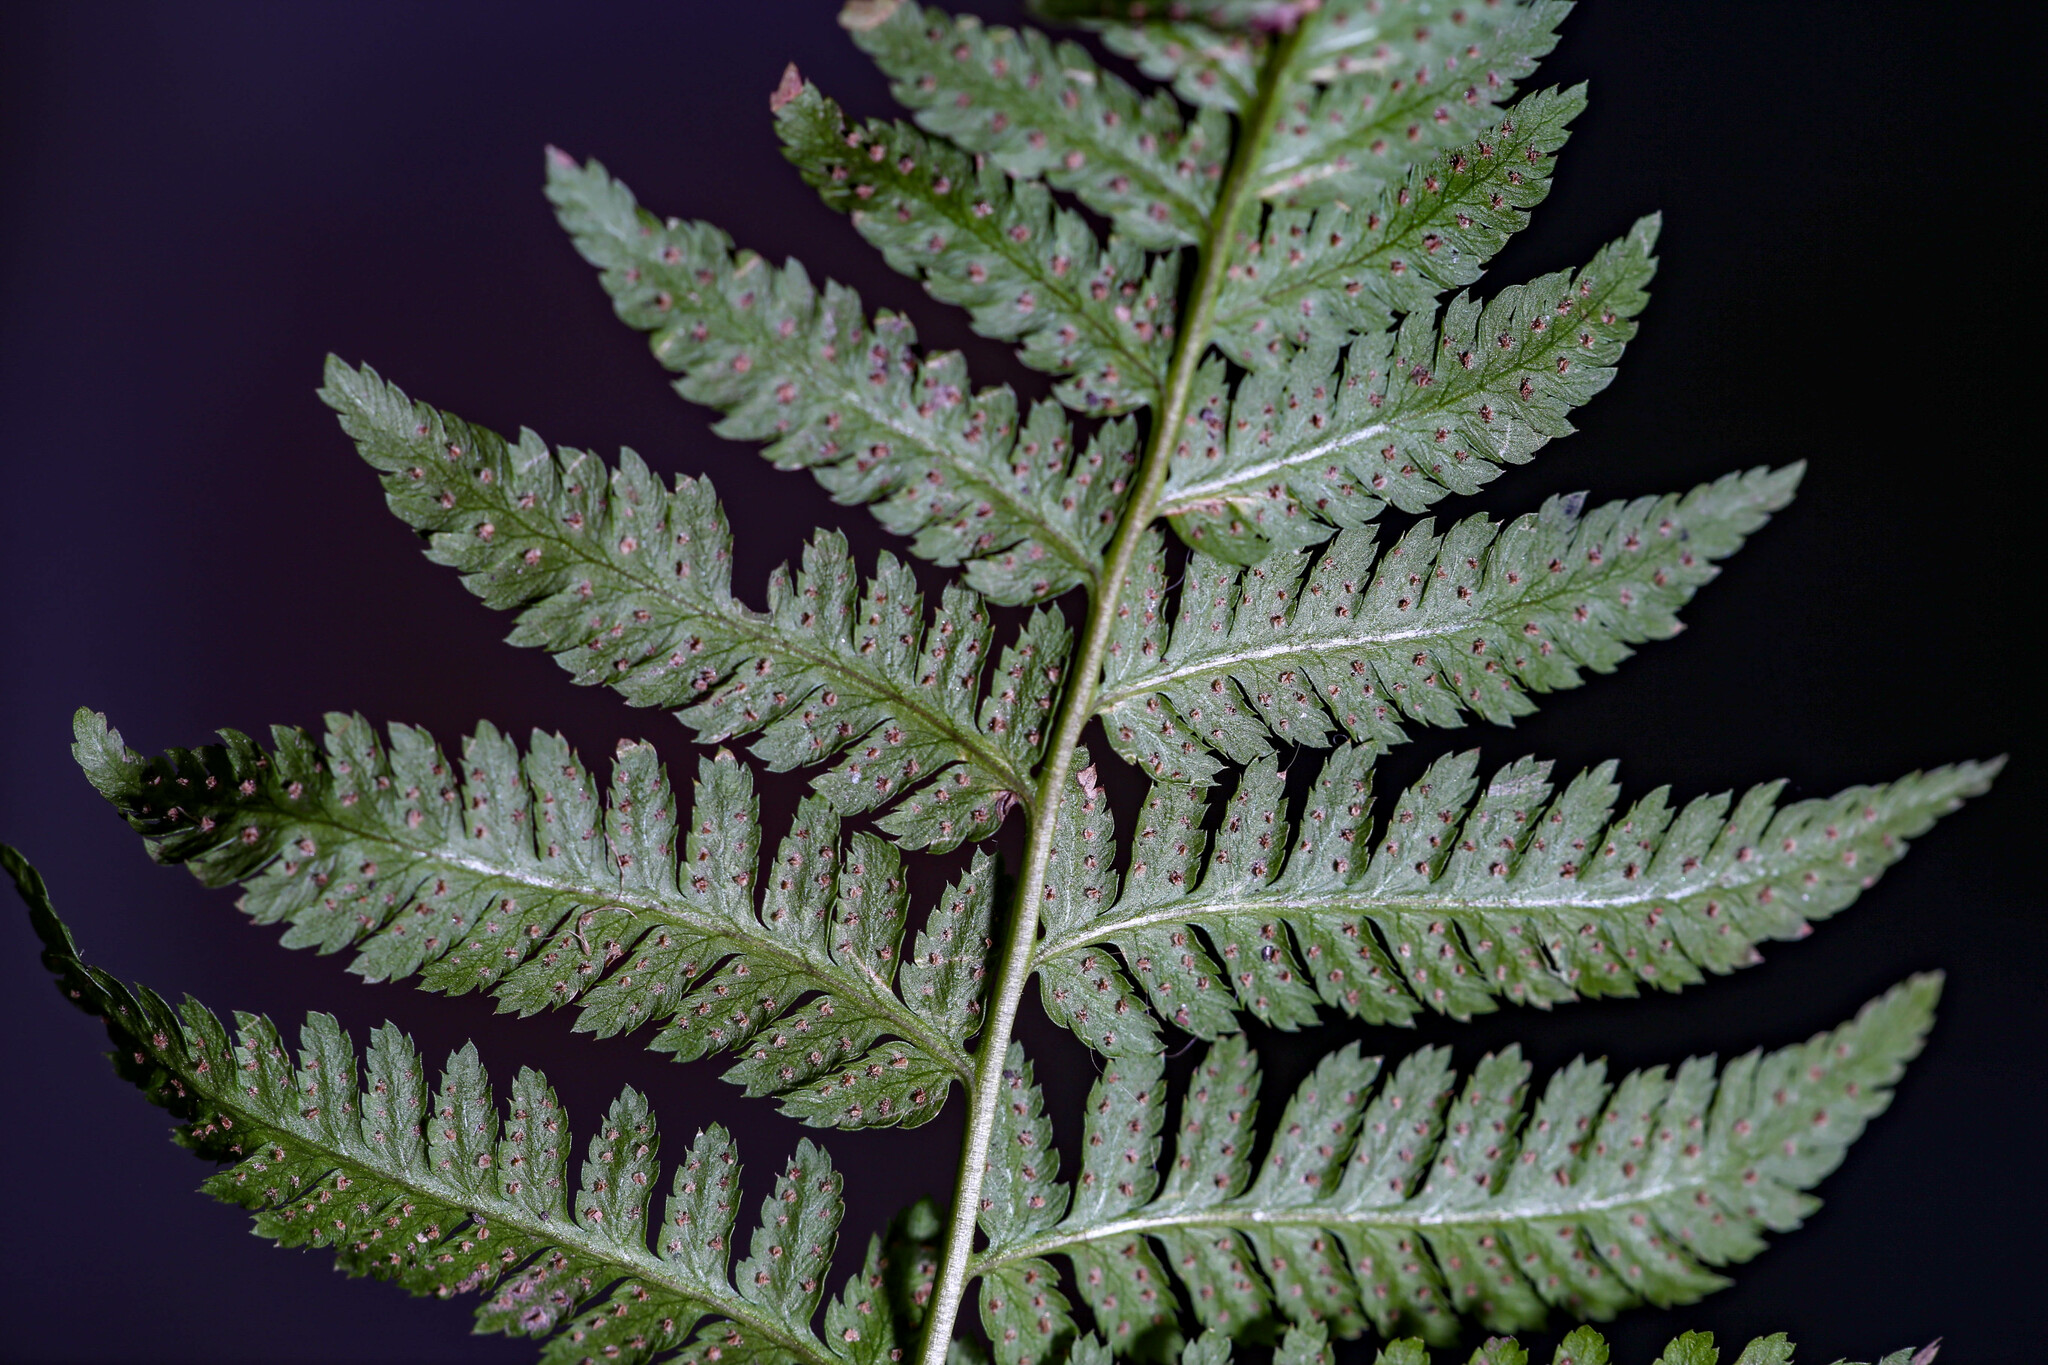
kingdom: Plantae
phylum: Tracheophyta
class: Polypodiopsida
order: Polypodiales
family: Dryopteridaceae
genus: Dryopteris
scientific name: Dryopteris carthusiana
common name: Narrow buckler-fern
